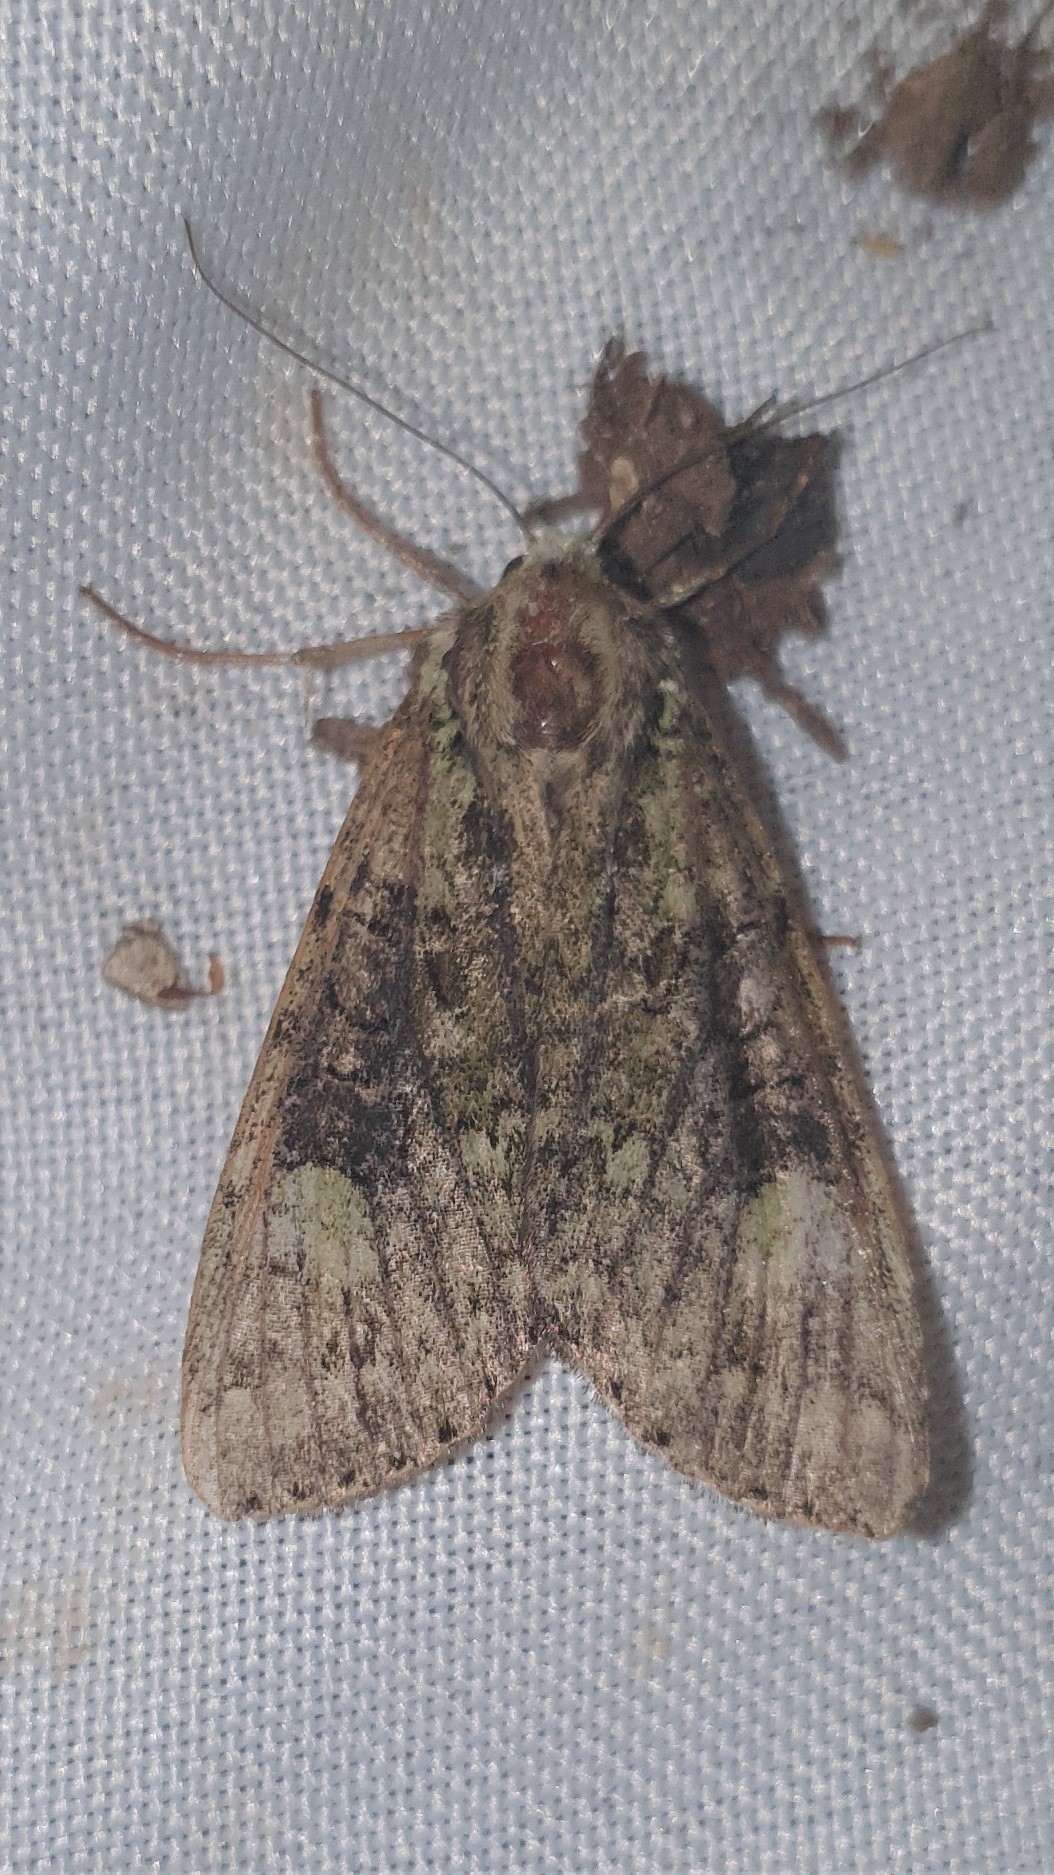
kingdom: Animalia
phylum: Arthropoda
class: Insecta
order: Lepidoptera
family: Noctuidae
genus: Anaplectoides
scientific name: Anaplectoides prasina
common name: Green arches
